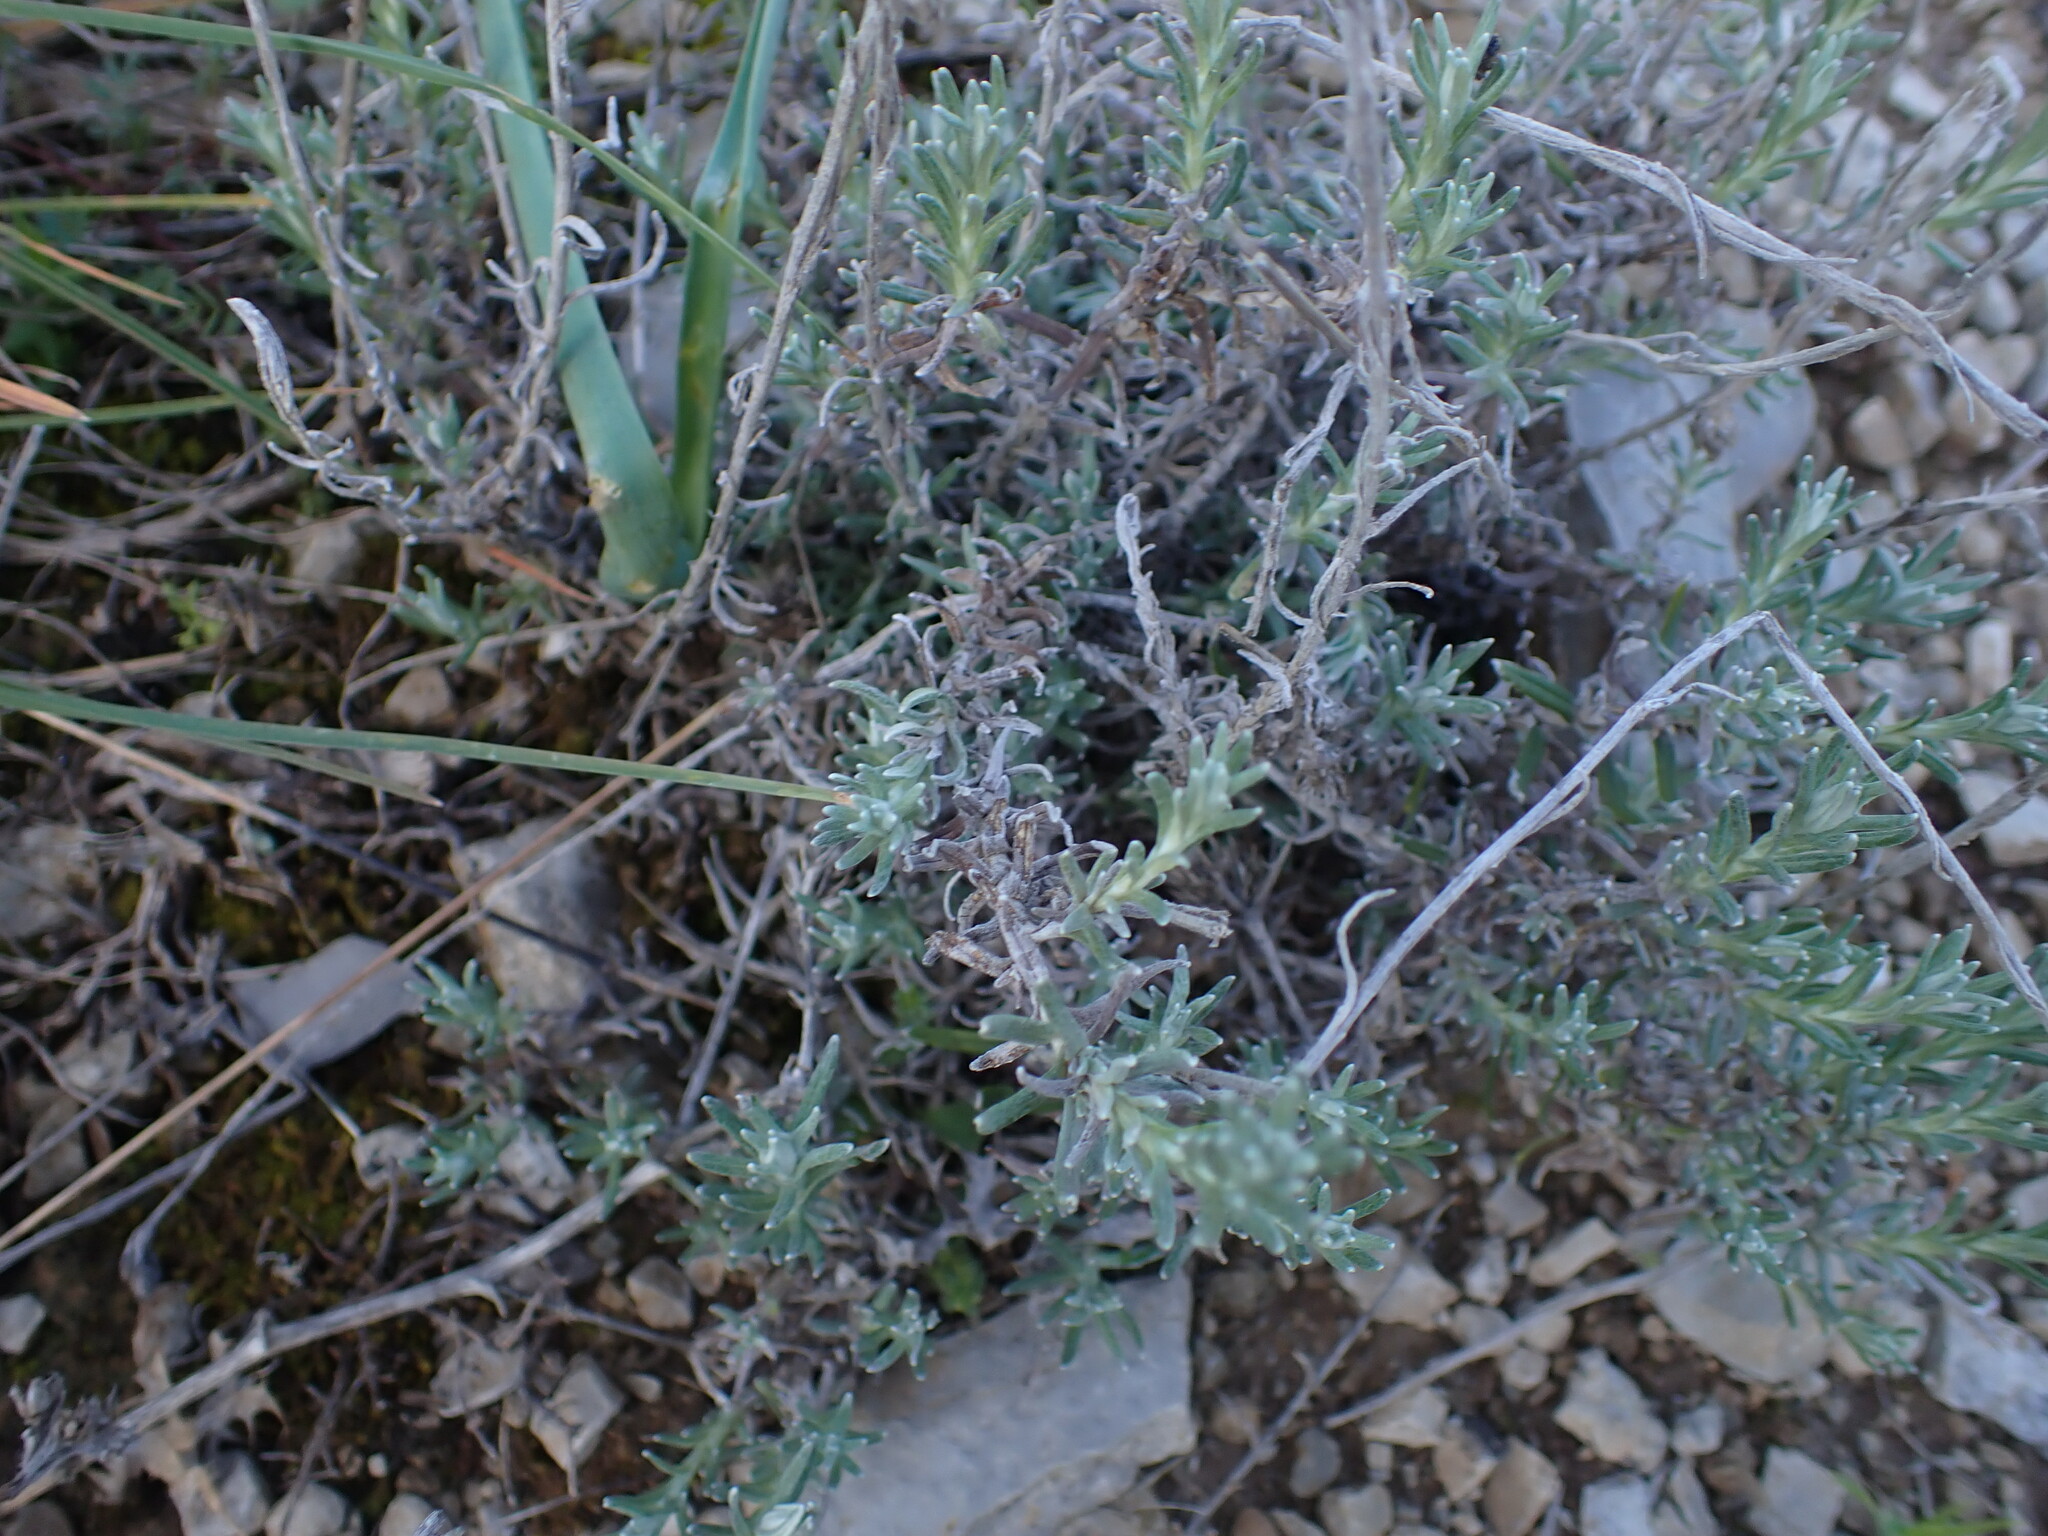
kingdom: Plantae
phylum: Tracheophyta
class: Magnoliopsida
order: Asterales
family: Asteraceae
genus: Helichrysum
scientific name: Helichrysum stoechas
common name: Goldilocks
